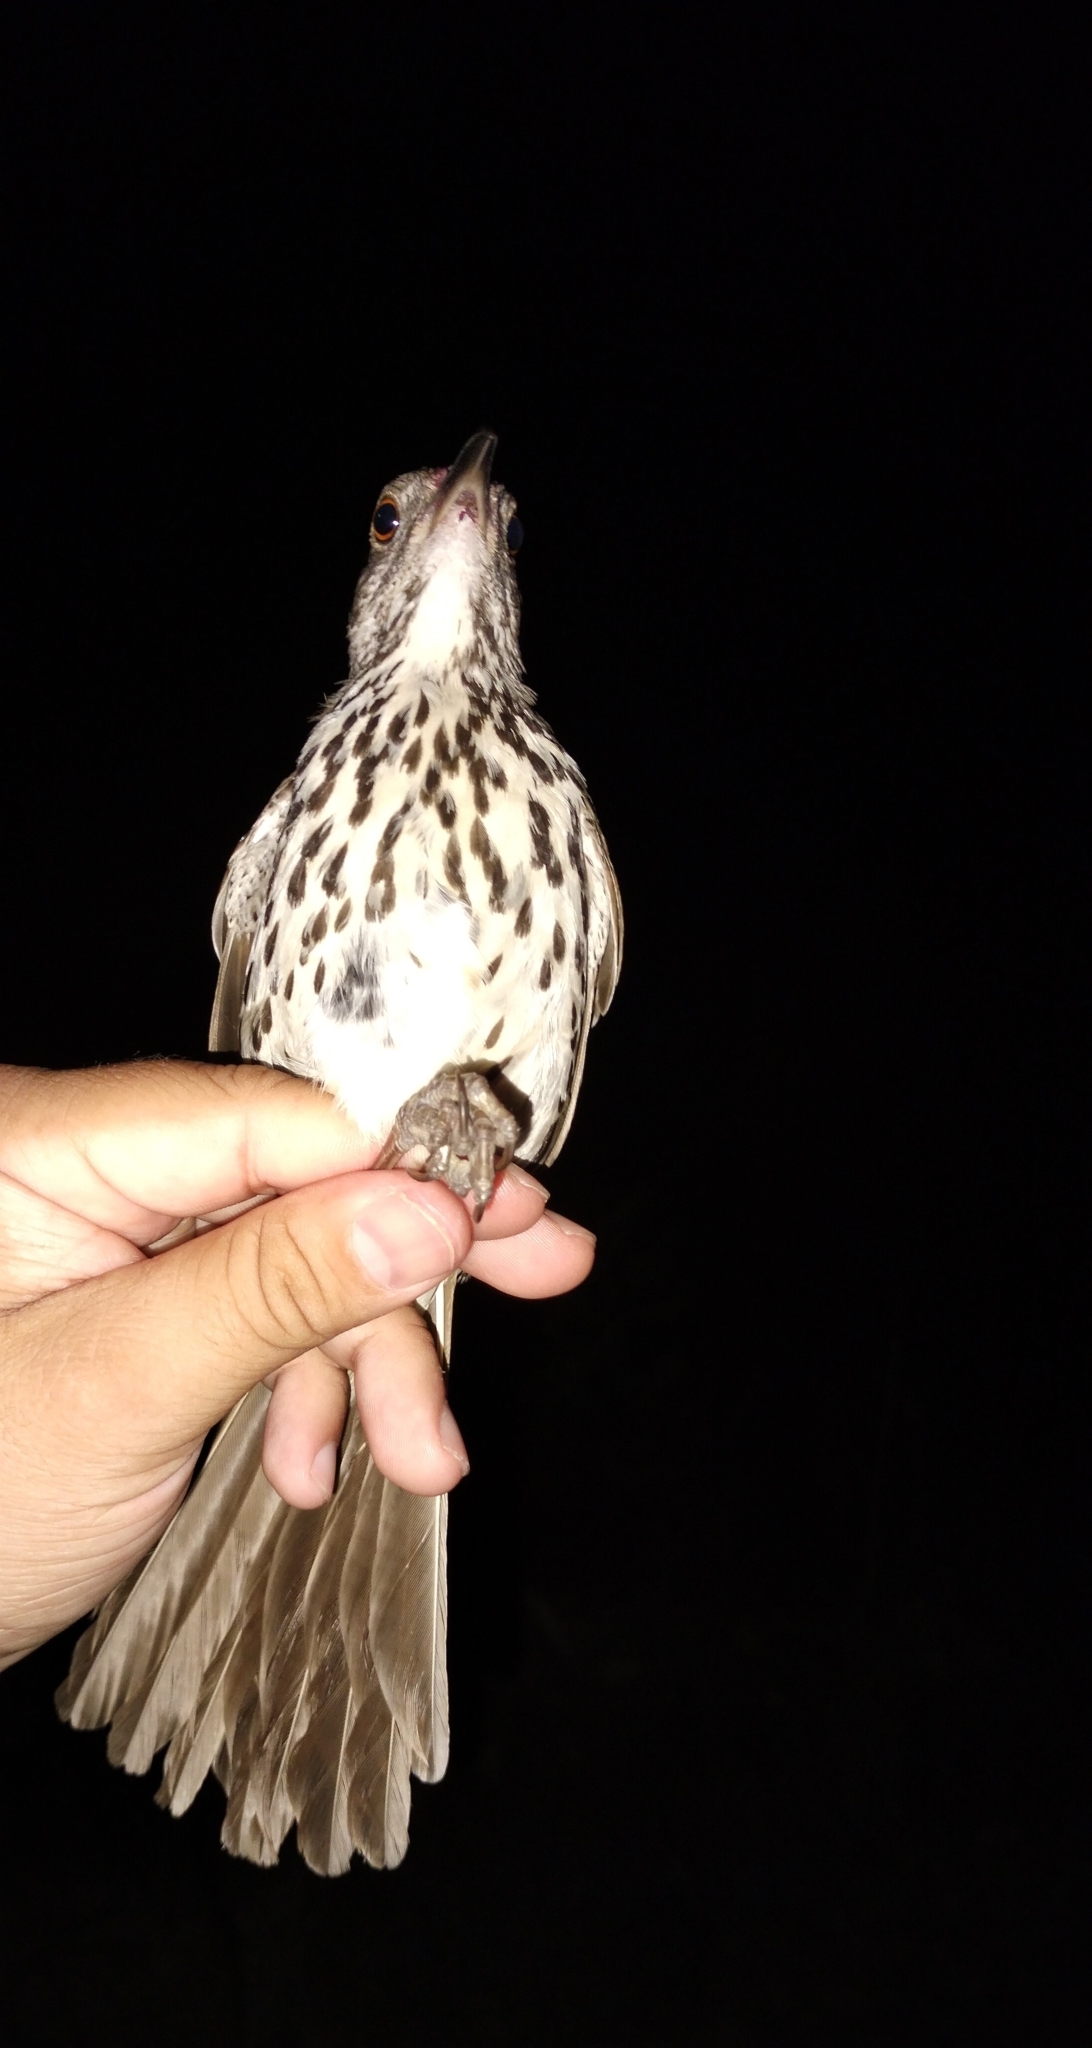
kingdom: Animalia
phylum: Chordata
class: Aves
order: Passeriformes
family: Mimidae
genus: Toxostoma
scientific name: Toxostoma longirostre
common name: Long-billed thrasher
